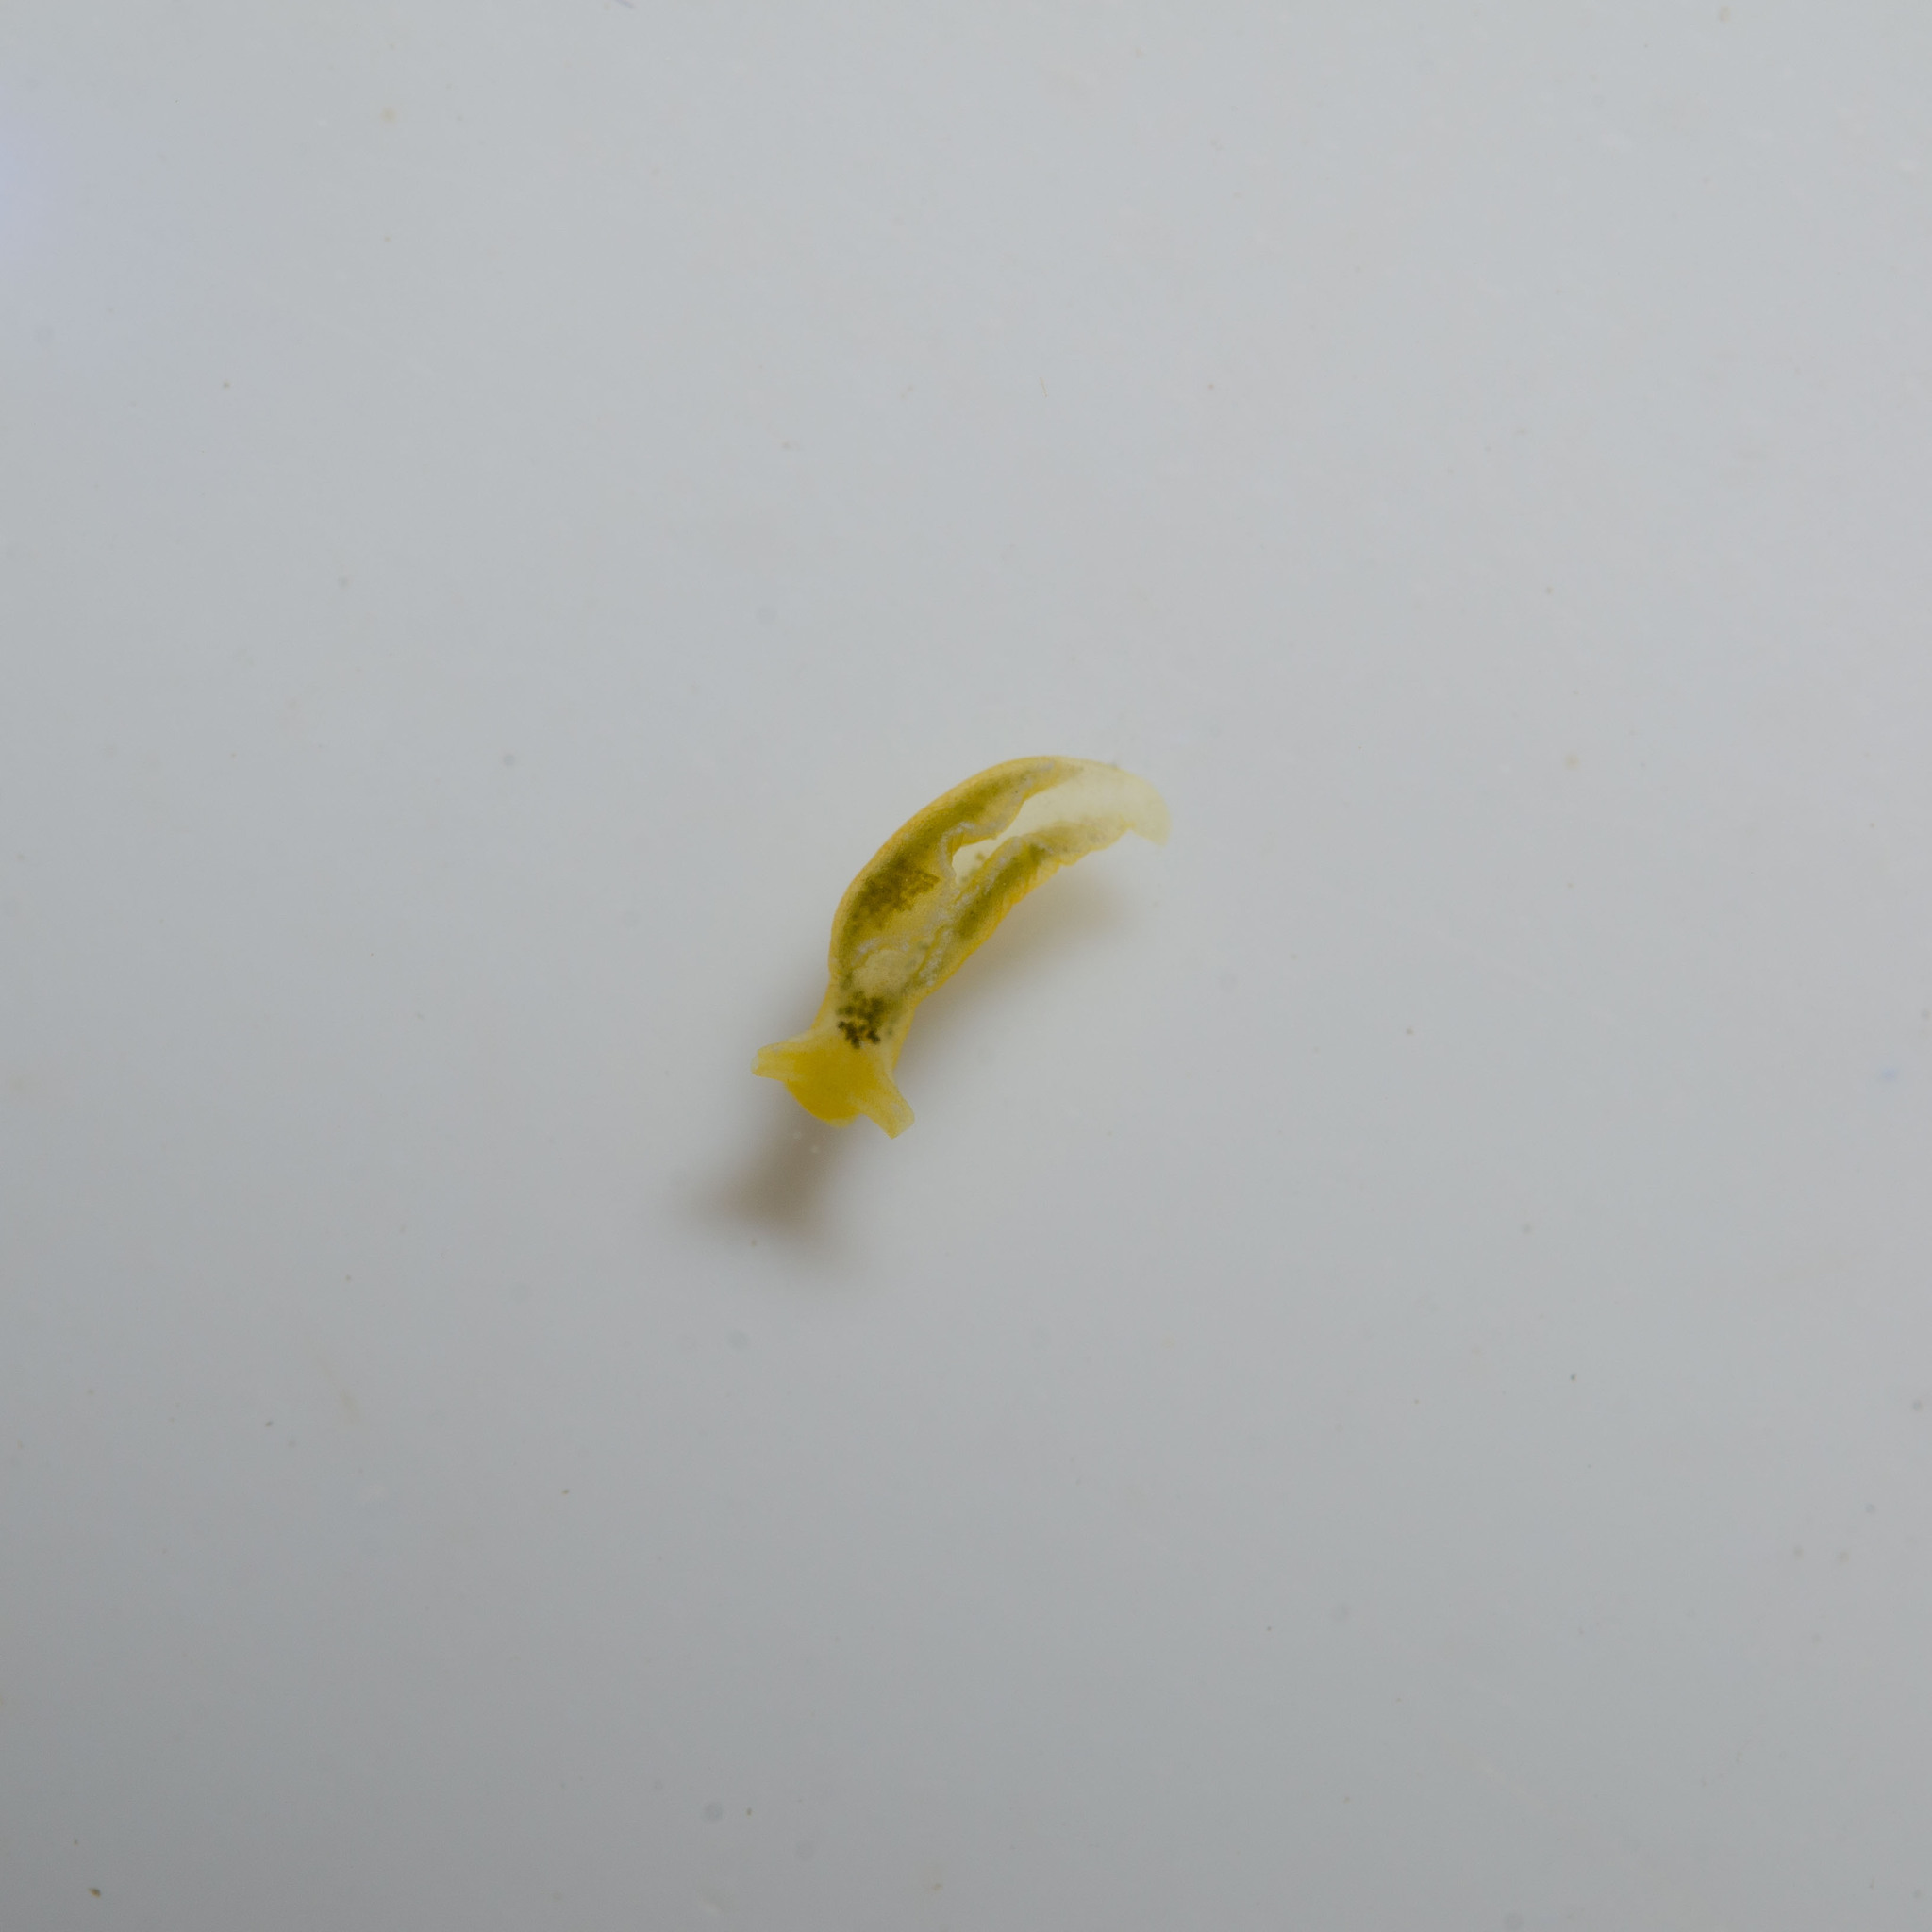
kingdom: Animalia
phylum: Mollusca
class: Gastropoda
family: Plakobranchidae
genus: Elysia
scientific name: Elysia flava
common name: Yellow elysia
